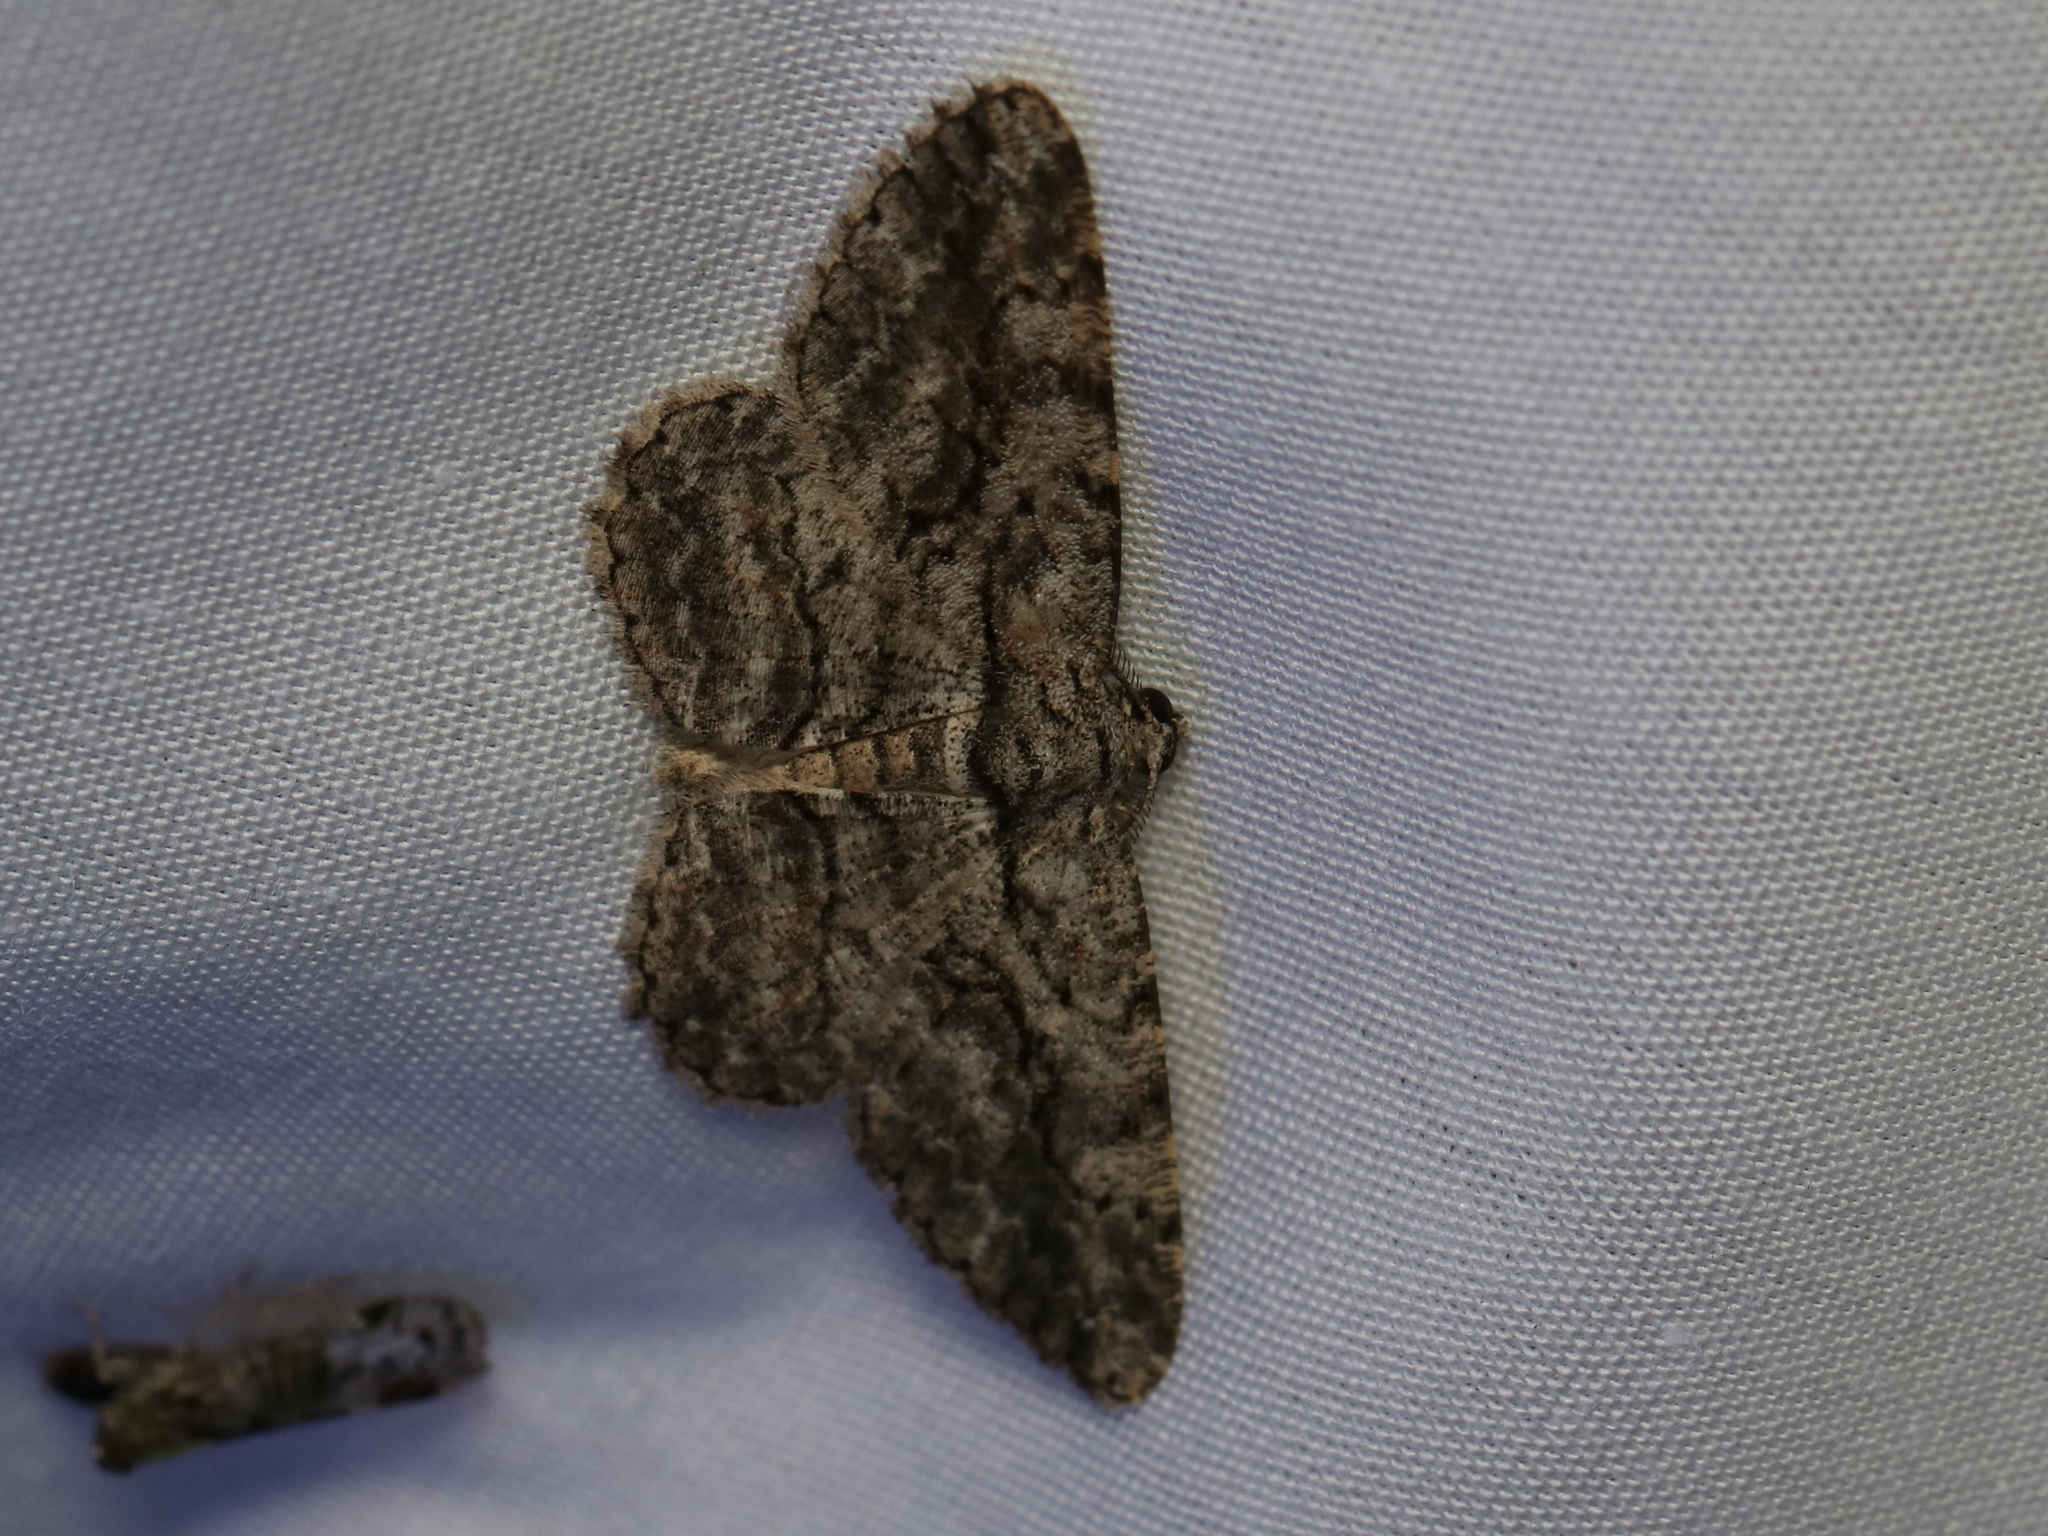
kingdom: Animalia
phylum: Arthropoda
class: Insecta
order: Lepidoptera
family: Geometridae
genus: Anavitrinella
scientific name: Anavitrinella pampinaria
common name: Common gray
